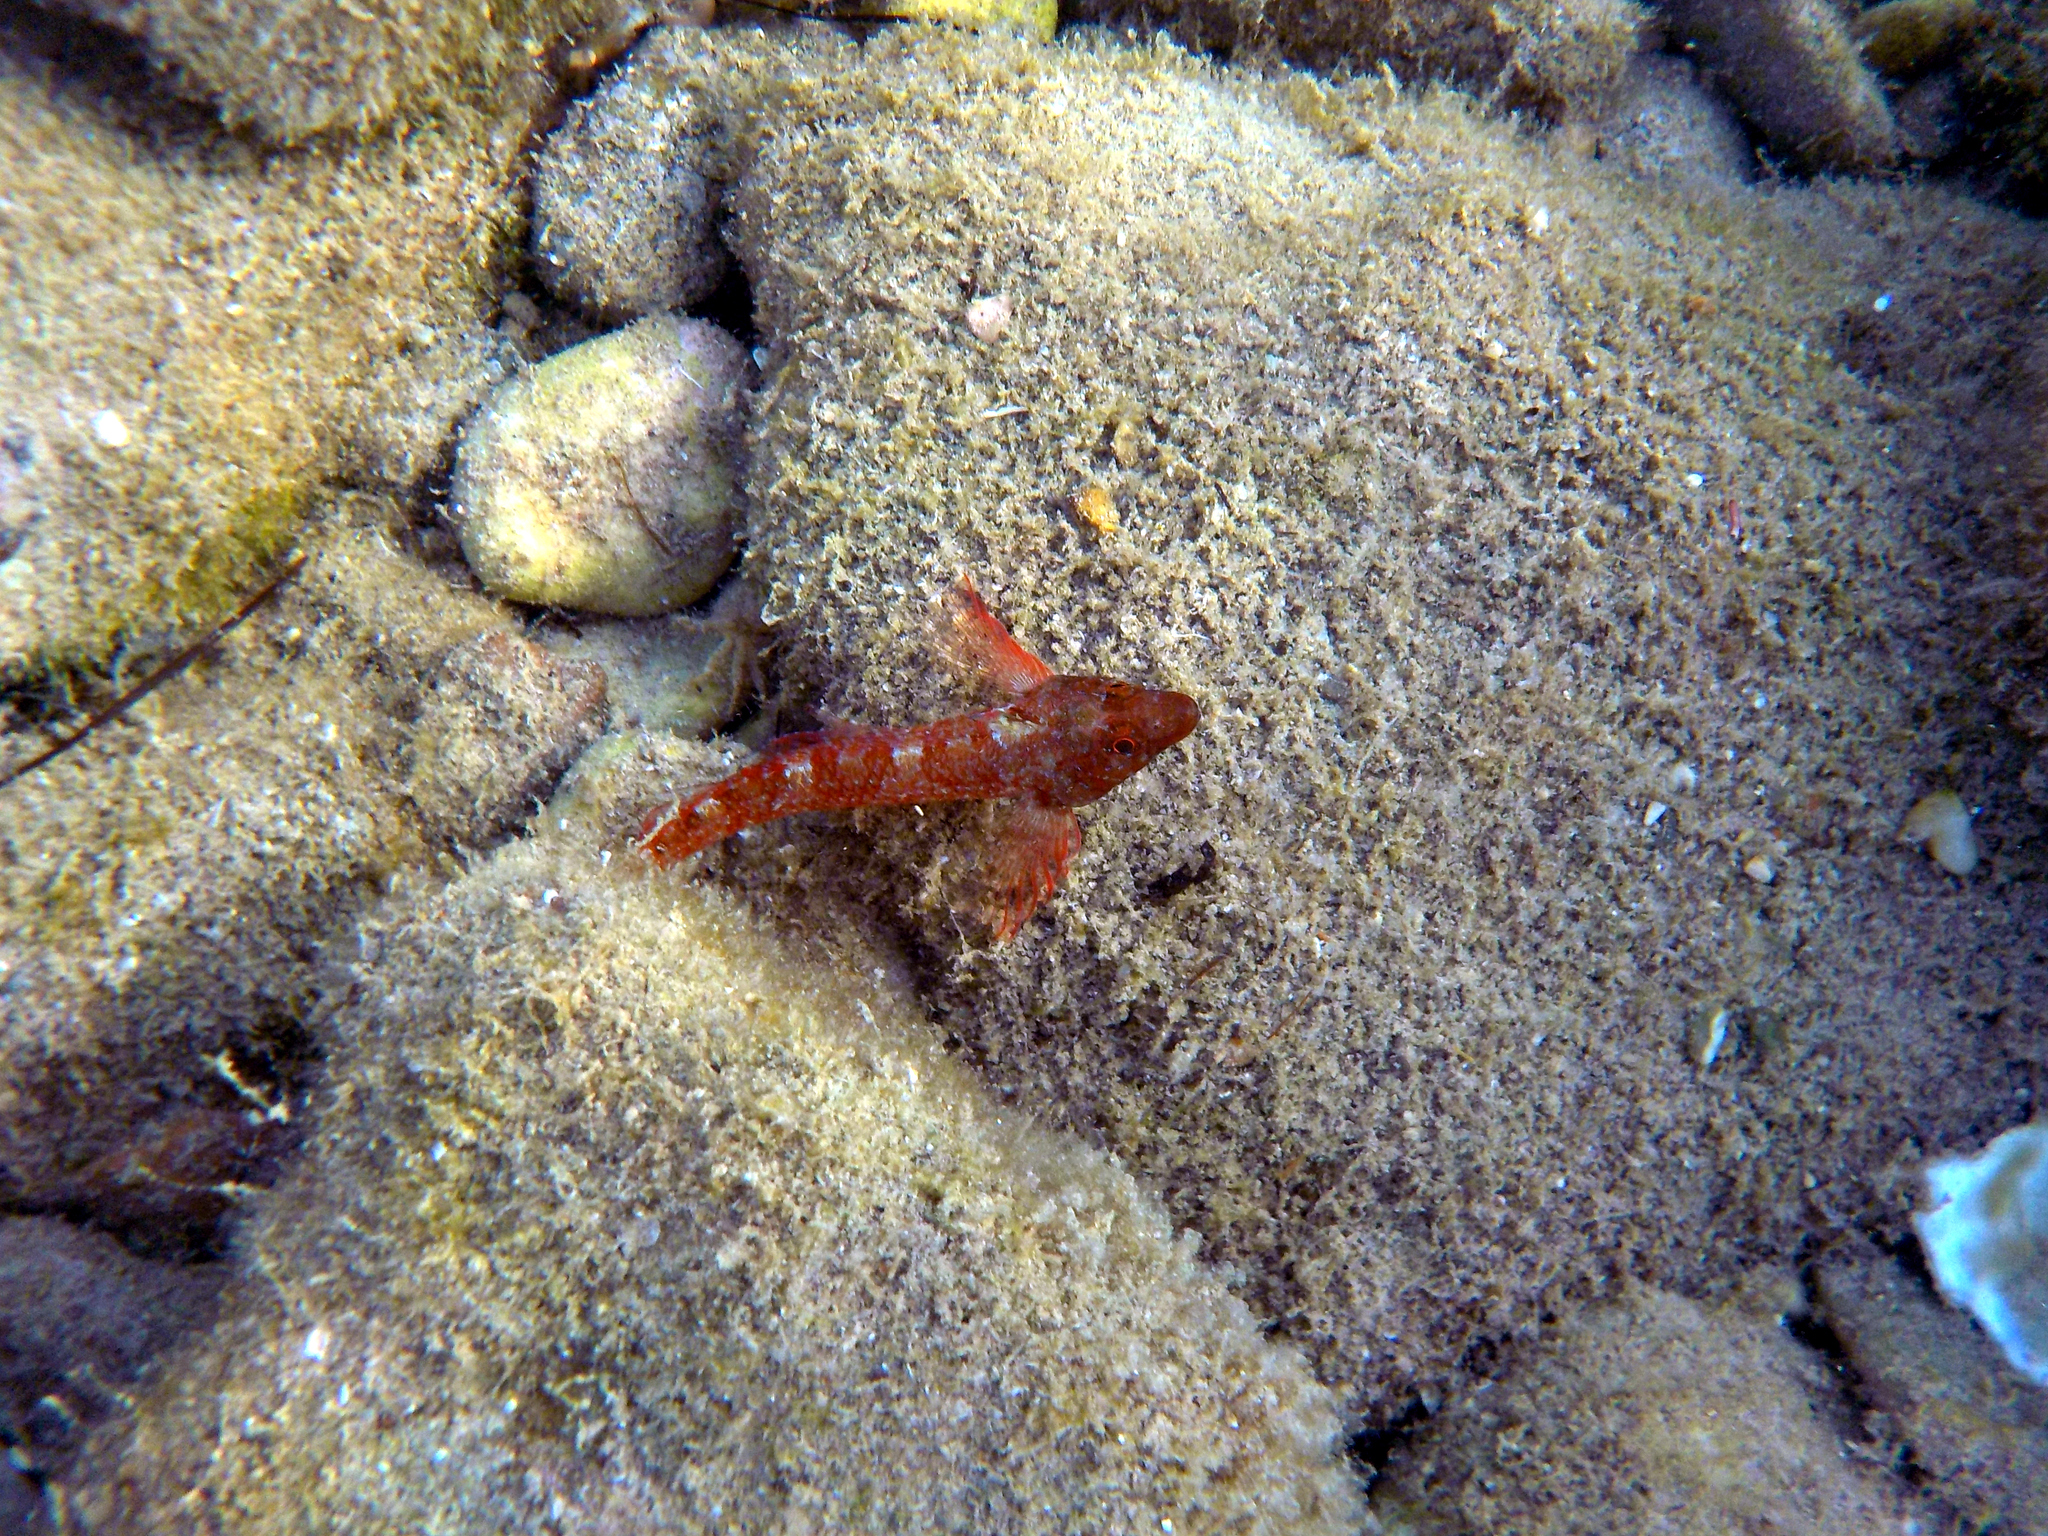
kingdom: Animalia
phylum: Chordata
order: Perciformes
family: Tripterygiidae
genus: Tripterygion
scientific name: Tripterygion tripteronotum
